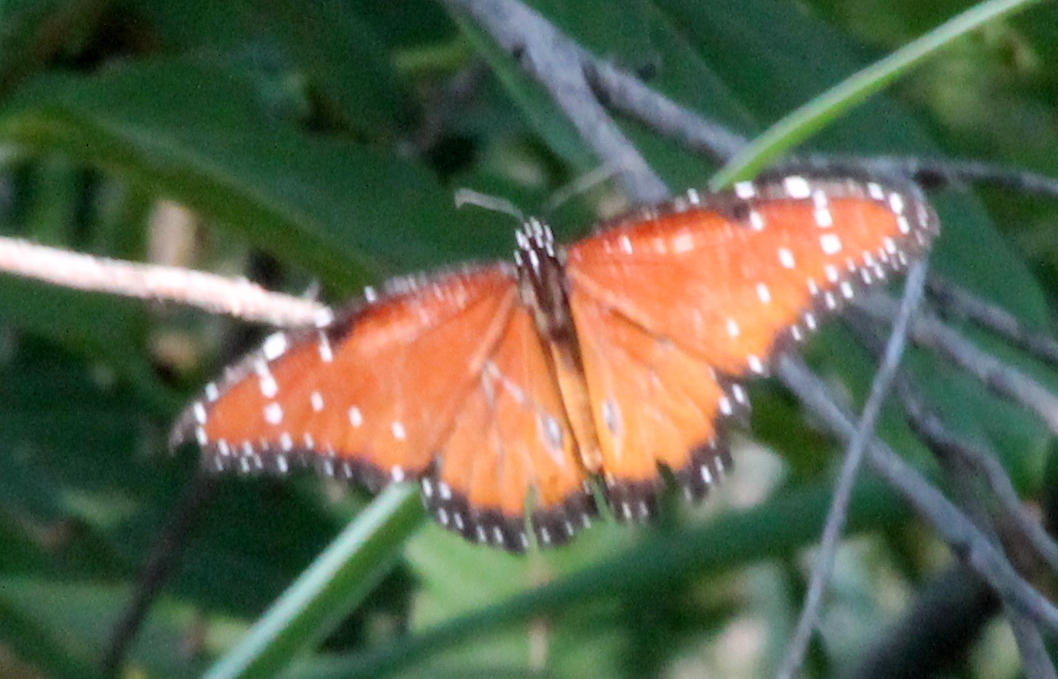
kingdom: Animalia
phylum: Arthropoda
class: Insecta
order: Lepidoptera
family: Nymphalidae
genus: Danaus
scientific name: Danaus gilippus
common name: Queen
